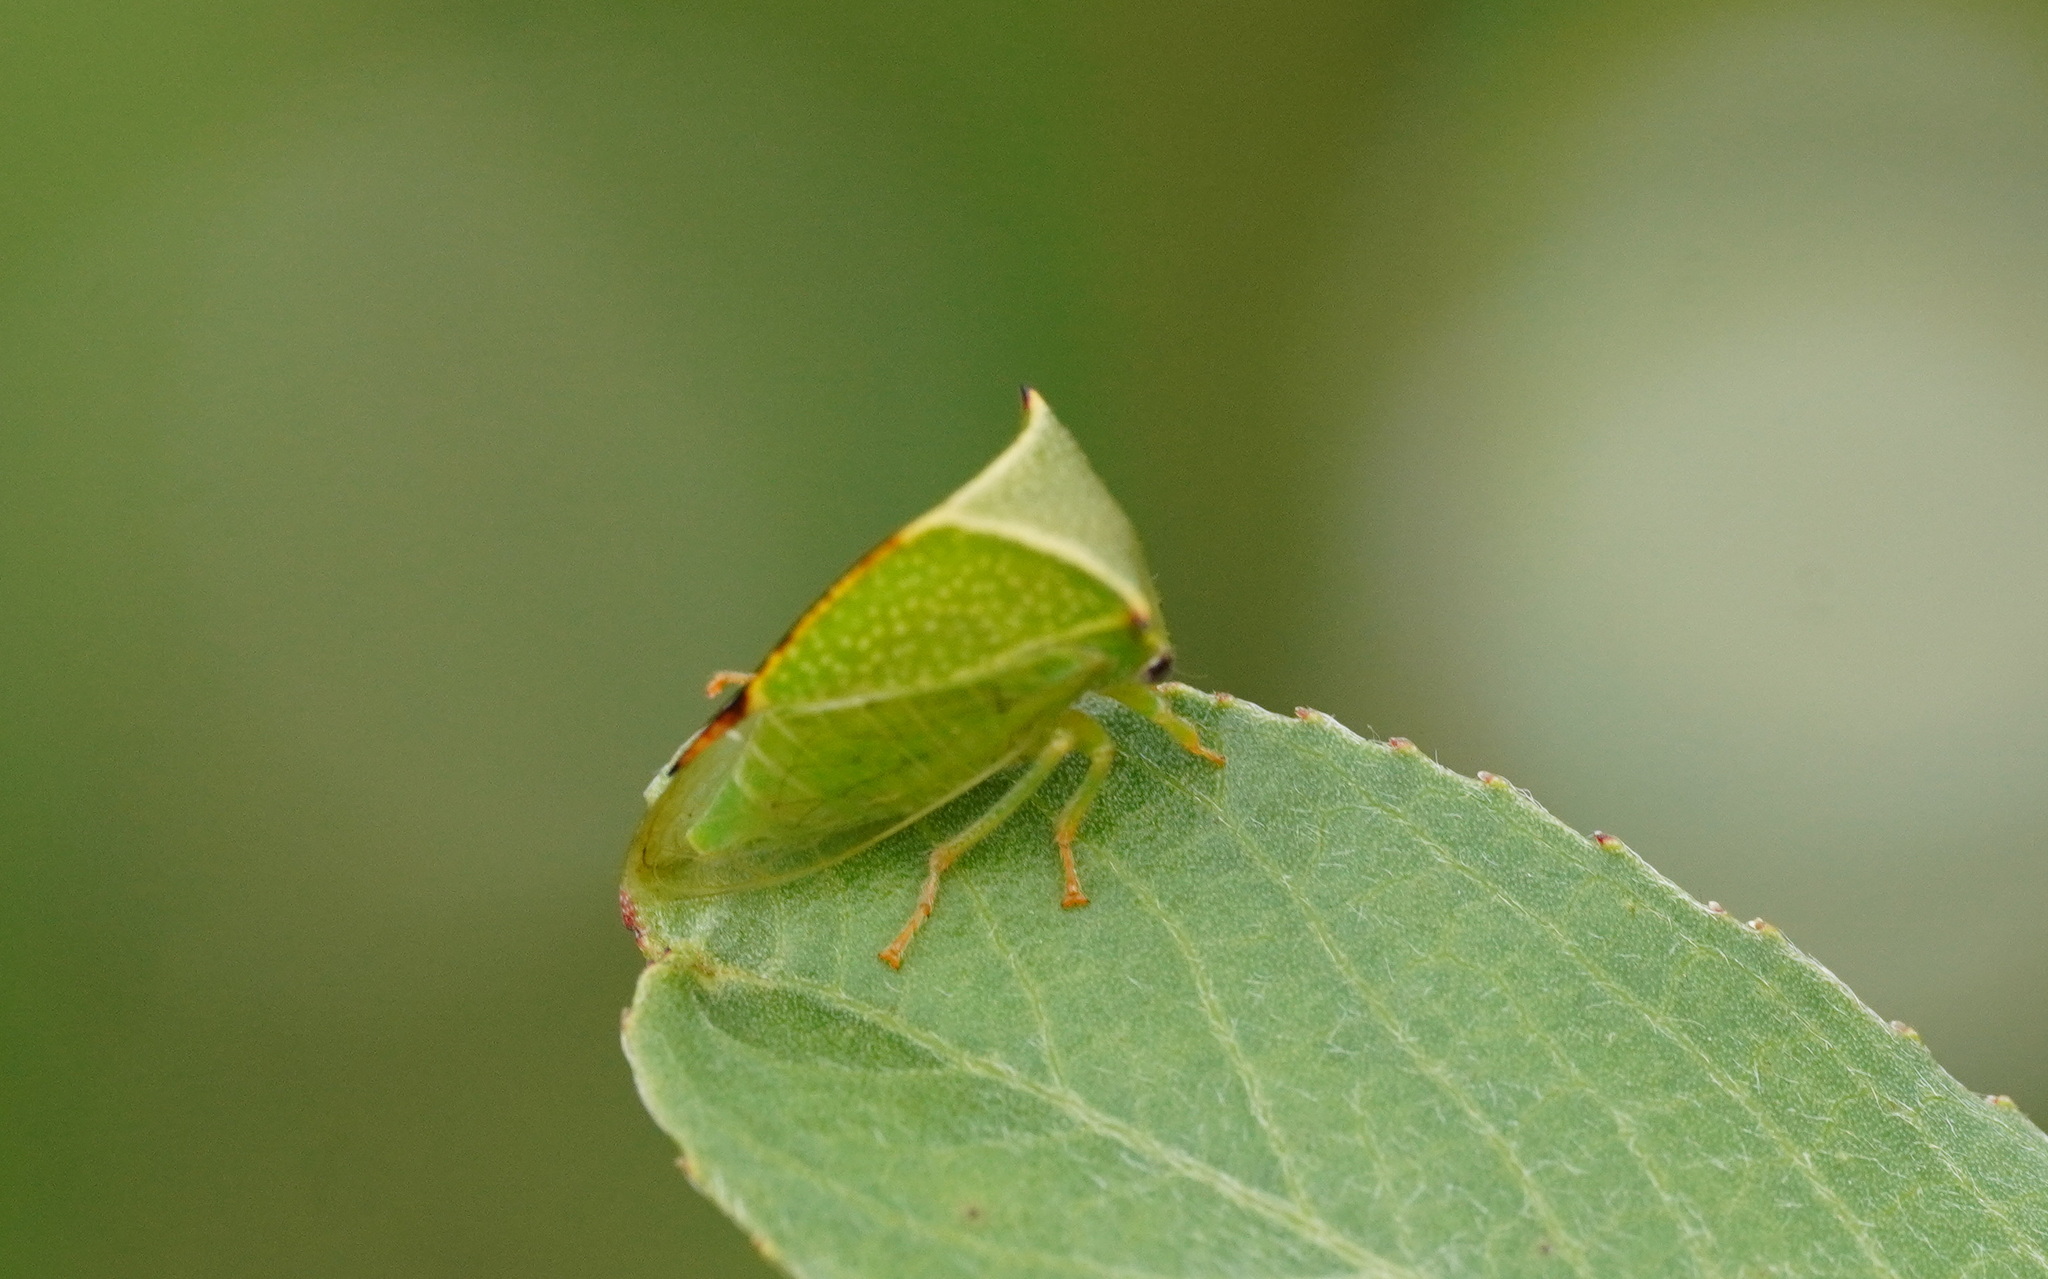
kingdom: Animalia
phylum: Arthropoda
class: Insecta
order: Hemiptera
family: Membracidae
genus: Stictocephala
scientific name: Stictocephala bisonia
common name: American buffalo treehopper
